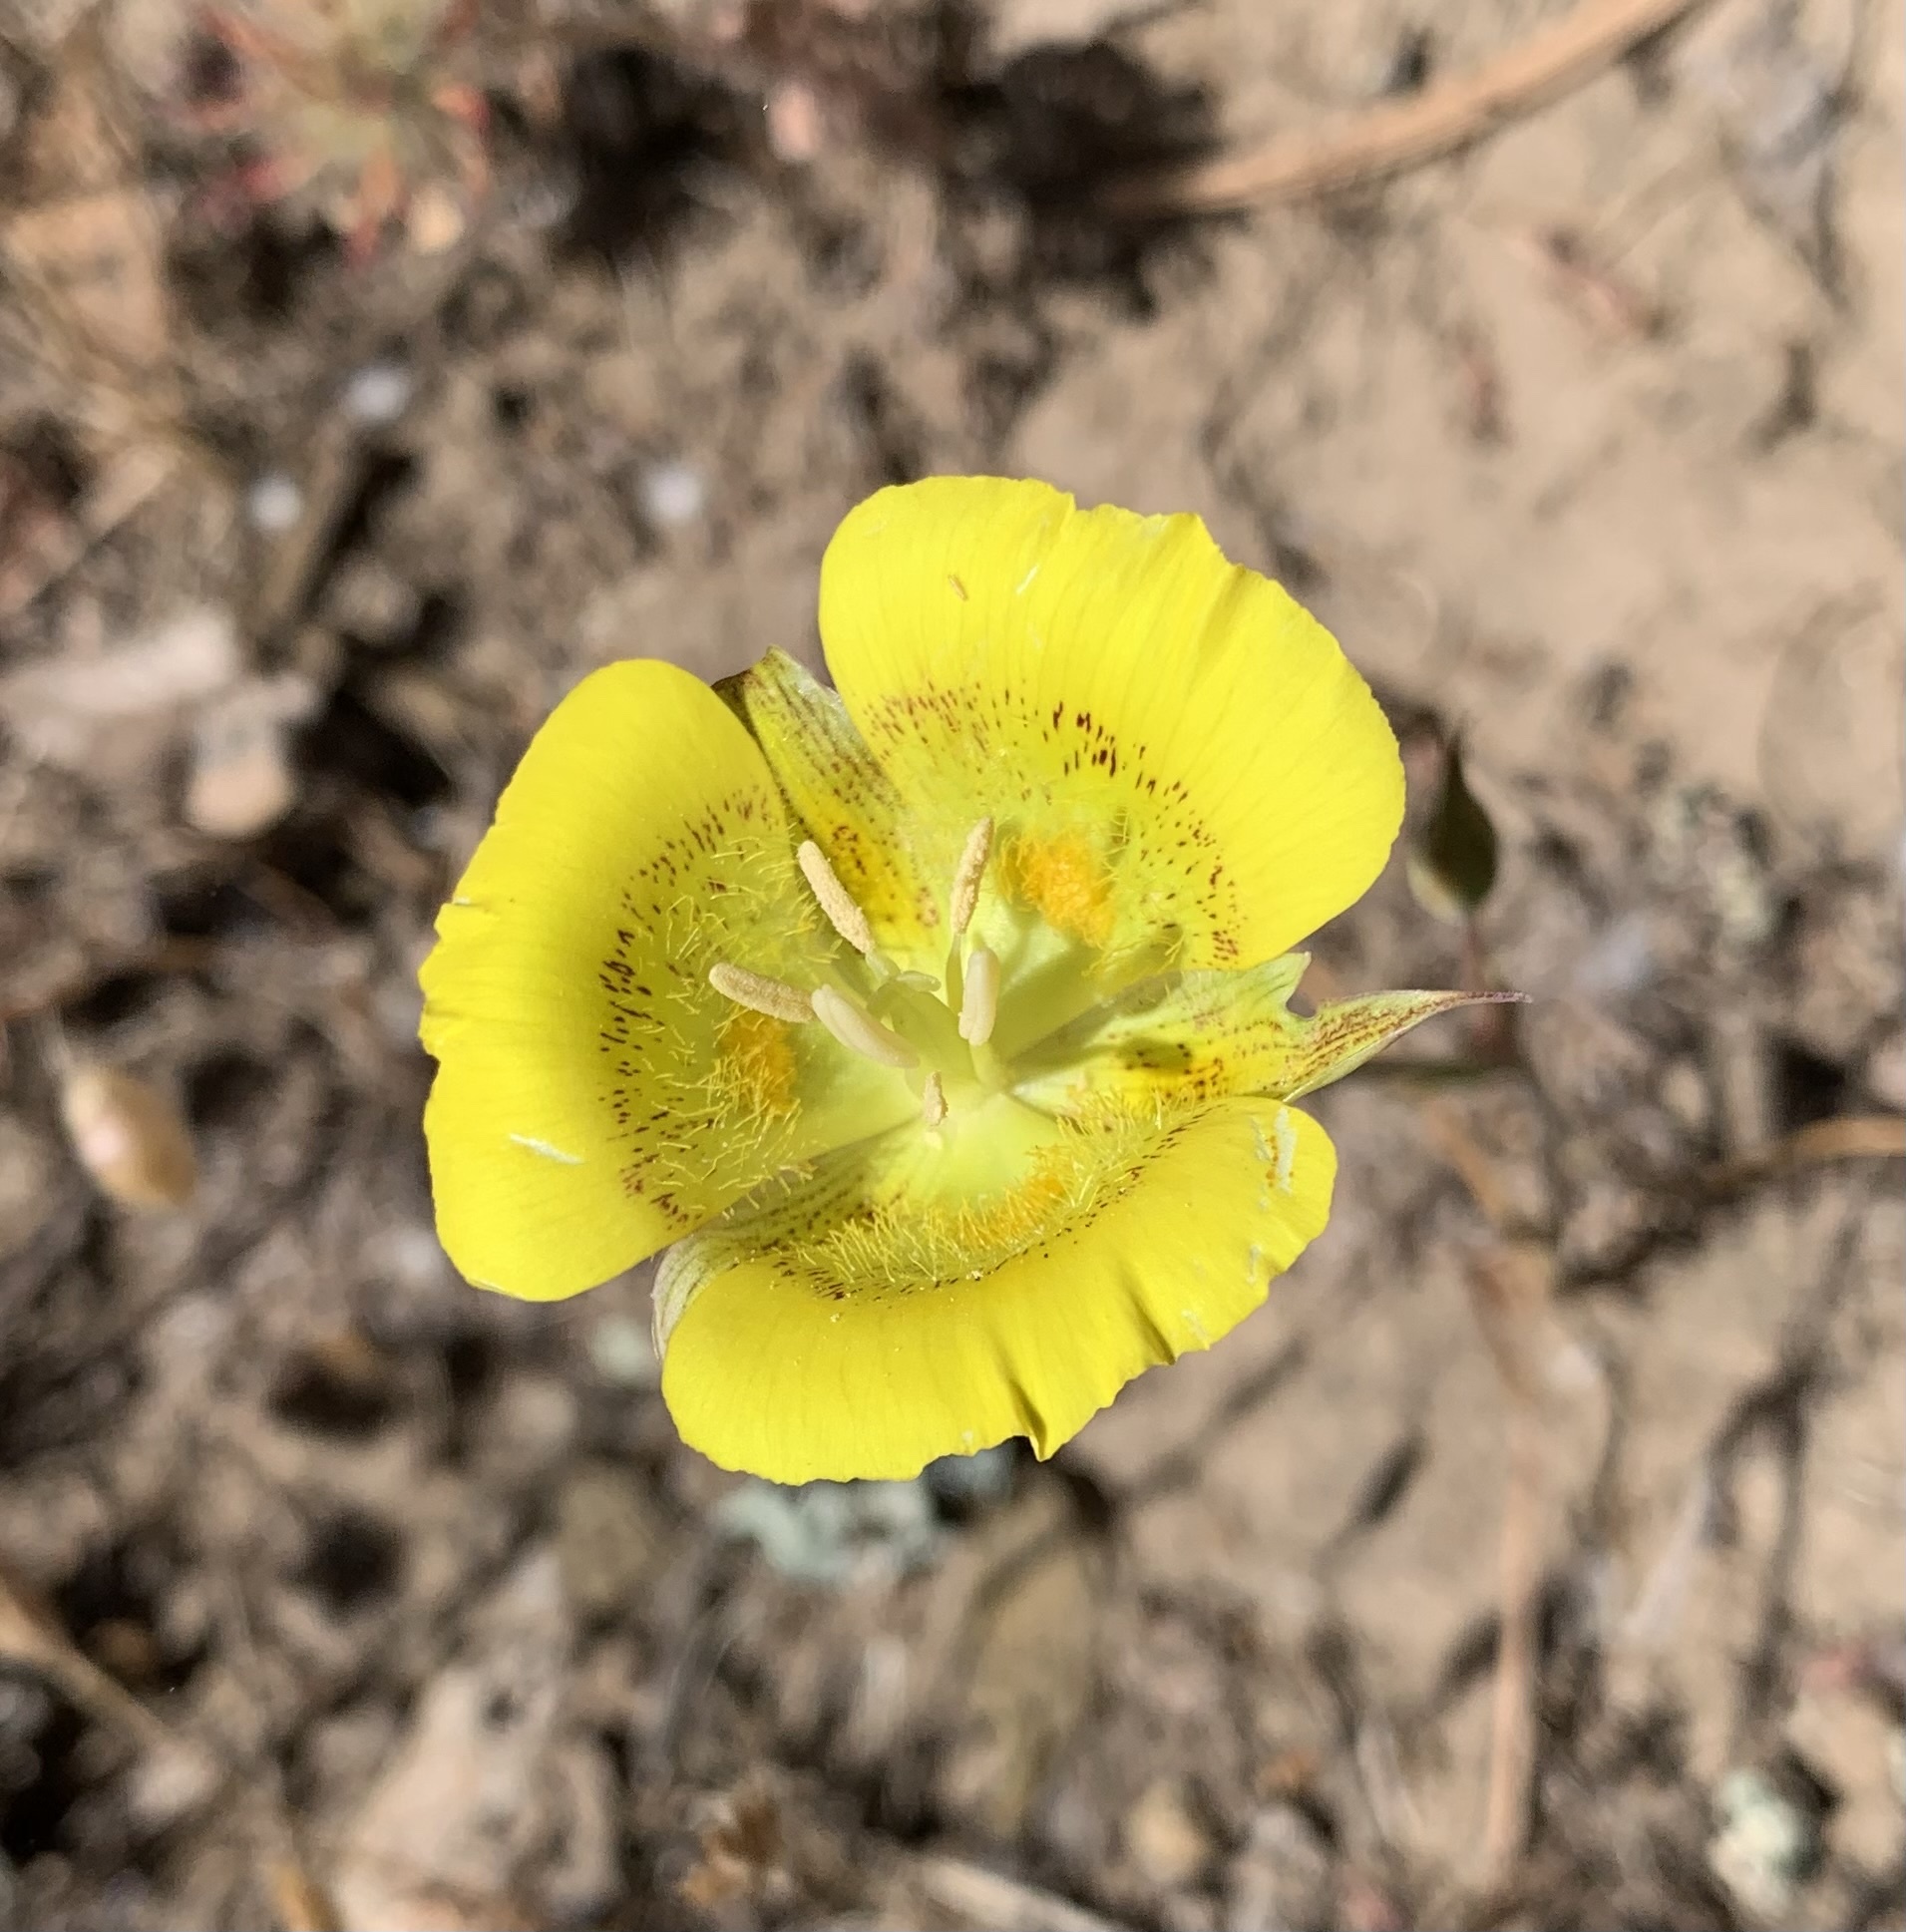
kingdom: Plantae
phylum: Tracheophyta
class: Liliopsida
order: Liliales
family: Liliaceae
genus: Calochortus
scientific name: Calochortus luteus
